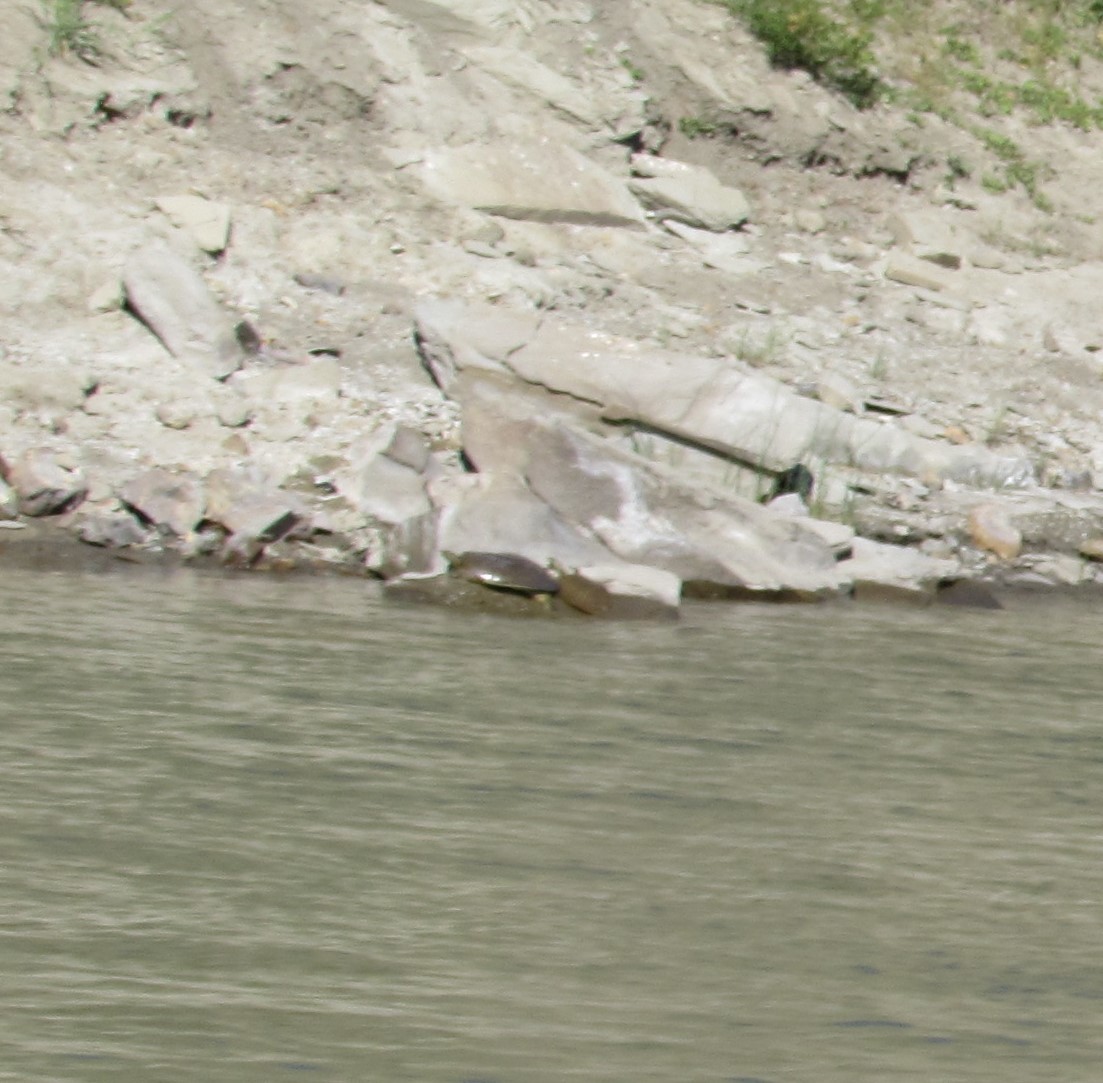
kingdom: Animalia
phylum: Chordata
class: Testudines
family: Trionychidae
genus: Apalone
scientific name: Apalone spinifera
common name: Spiny softshell turtle
